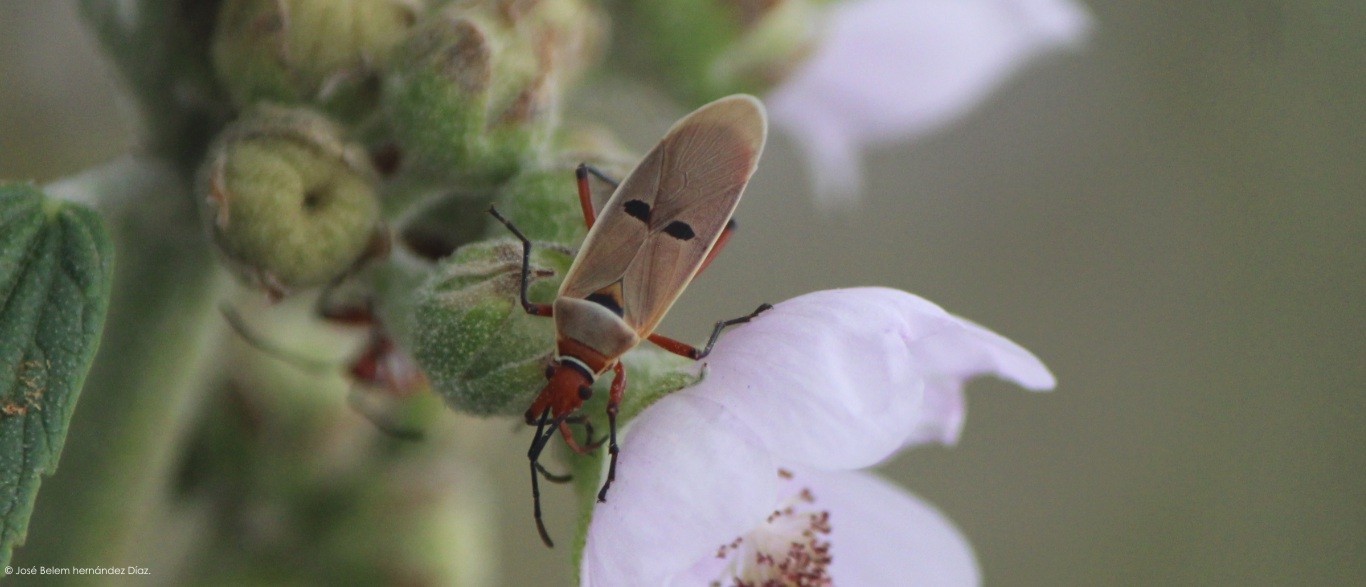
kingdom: Animalia
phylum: Arthropoda
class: Insecta
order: Hemiptera
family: Pyrrhocoridae
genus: Dysdercus
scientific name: Dysdercus bimaculatus
